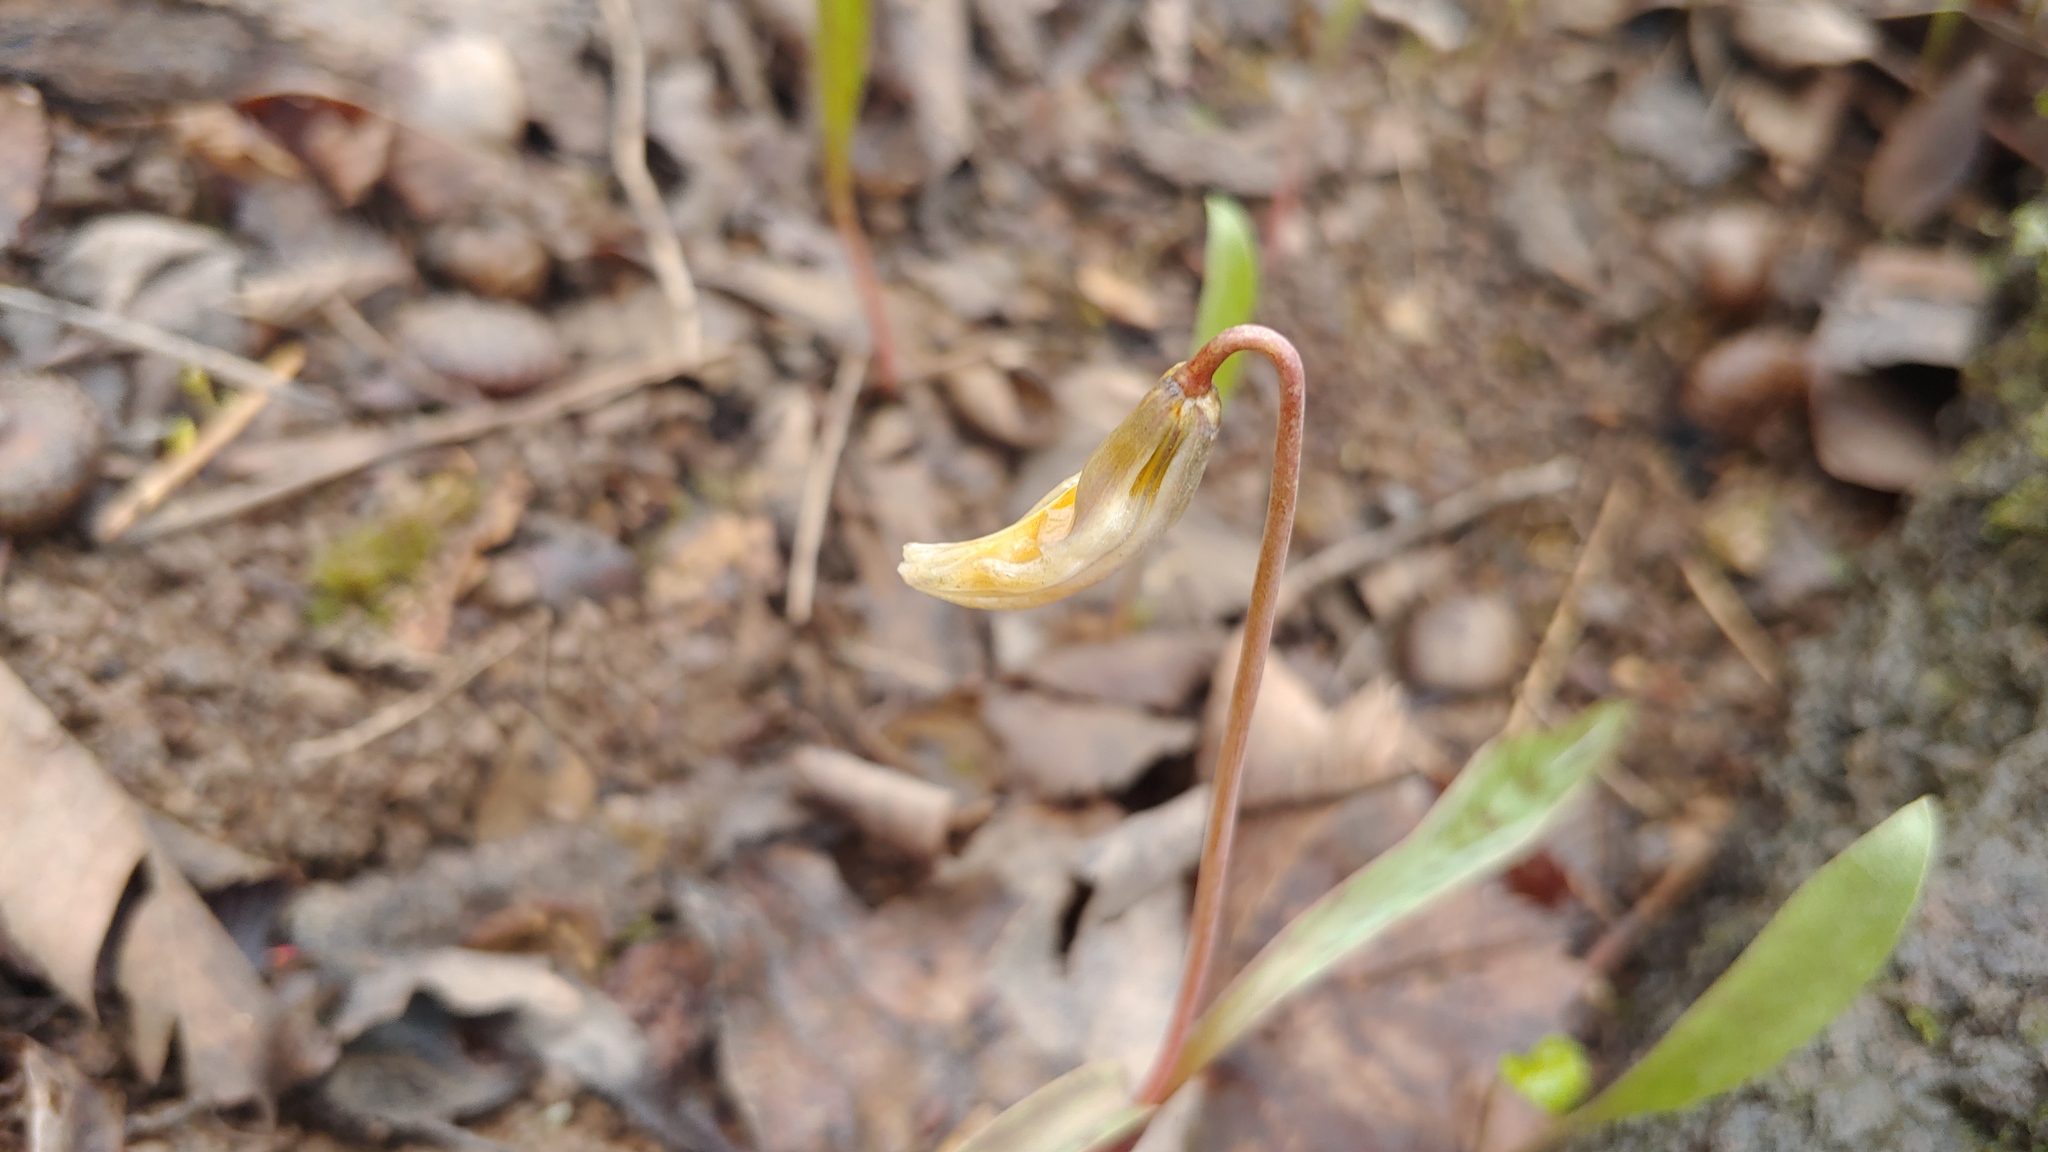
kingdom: Plantae
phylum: Tracheophyta
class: Liliopsida
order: Liliales
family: Liliaceae
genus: Erythronium
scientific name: Erythronium americanum
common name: Yellow adder's-tongue
